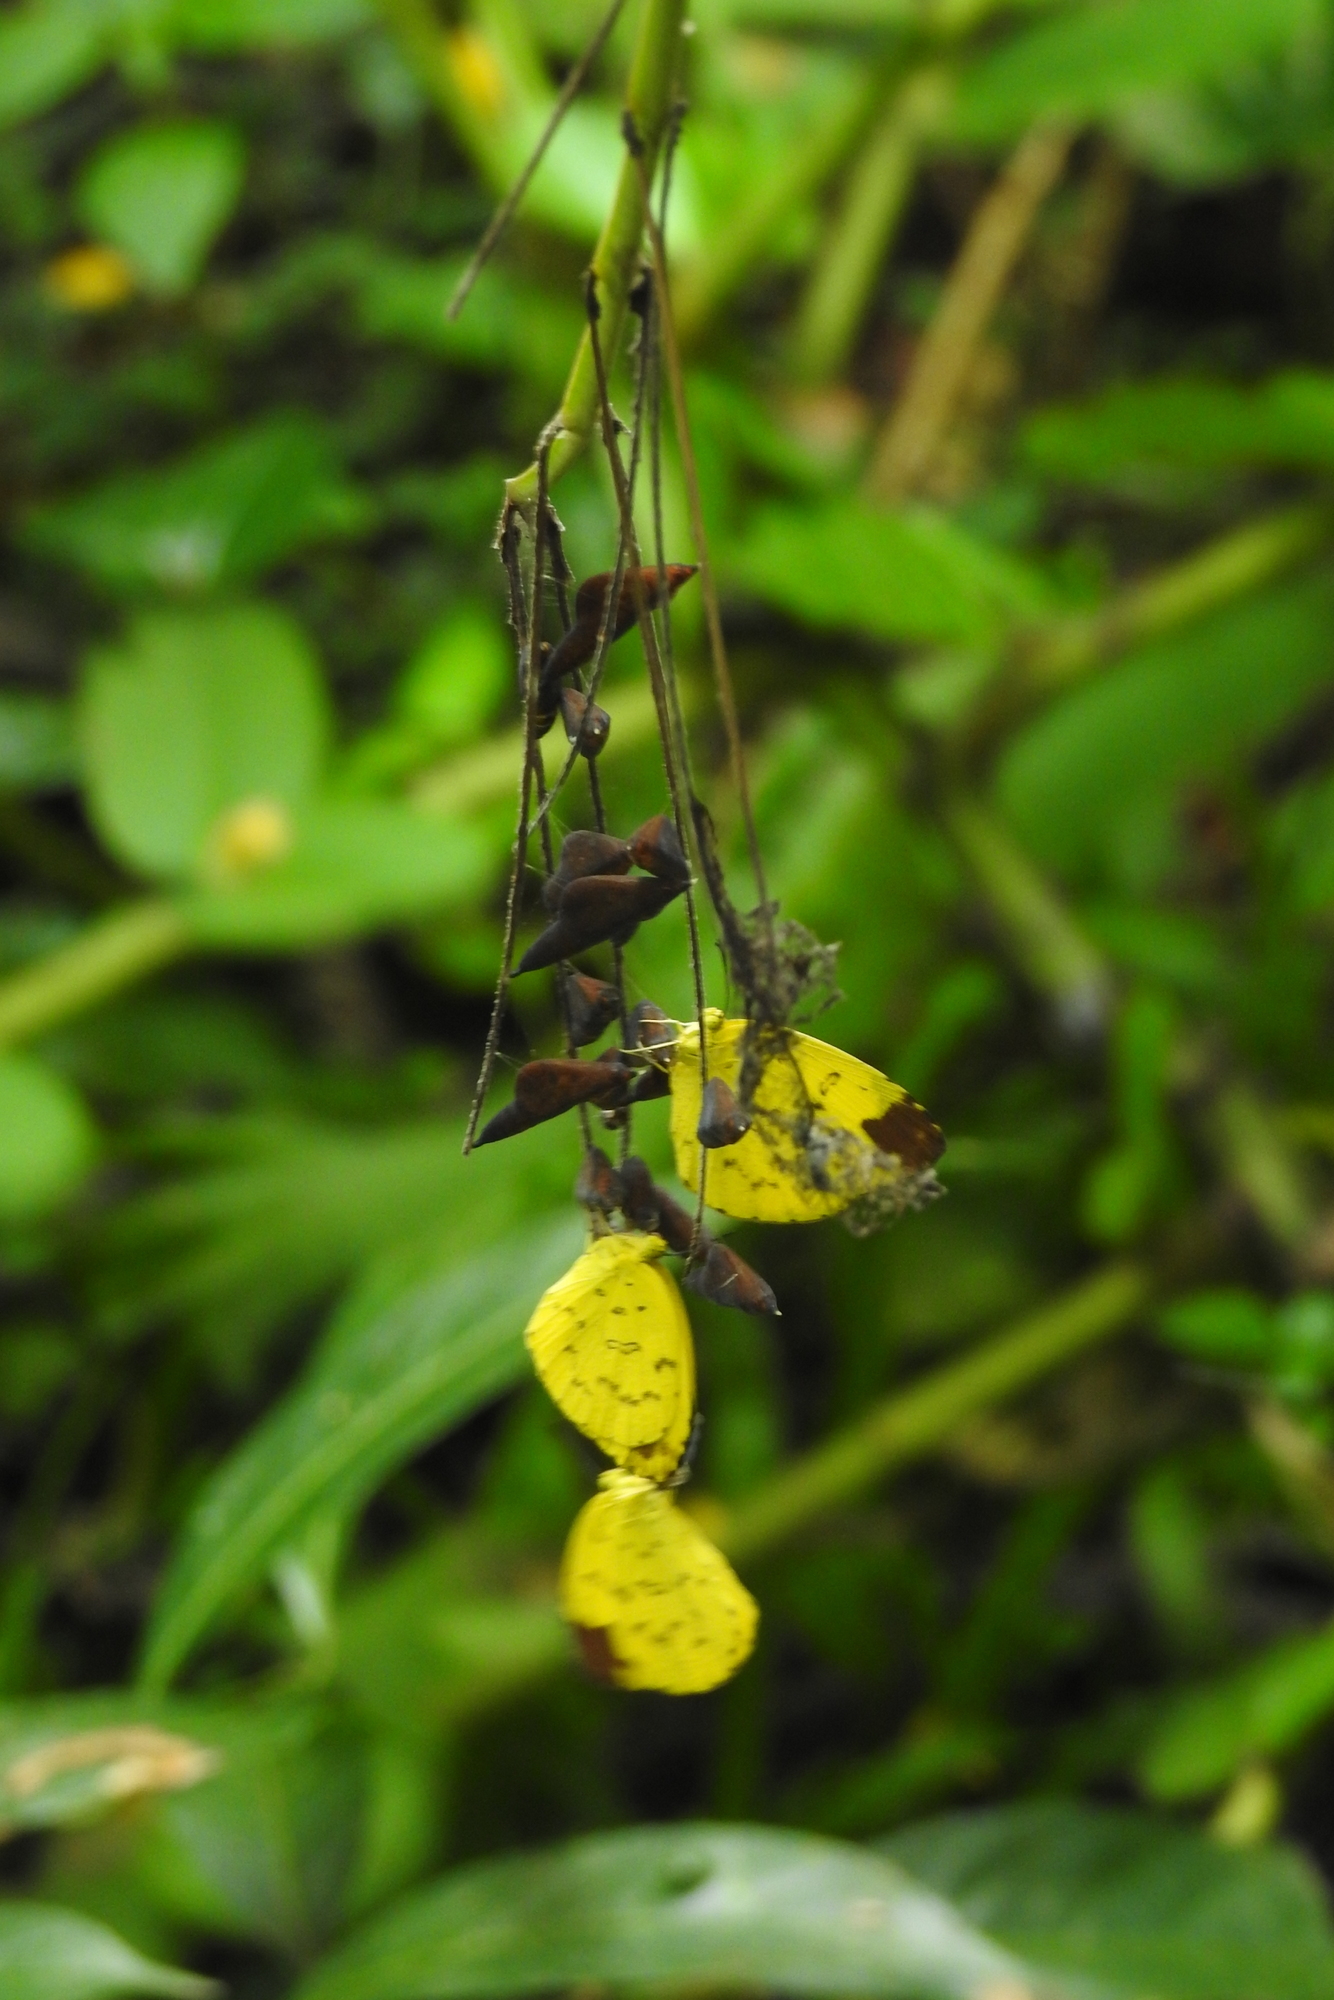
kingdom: Animalia
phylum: Arthropoda
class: Insecta
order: Lepidoptera
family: Pieridae
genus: Eurema
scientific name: Eurema blanda
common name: Three-spot grass yellow
